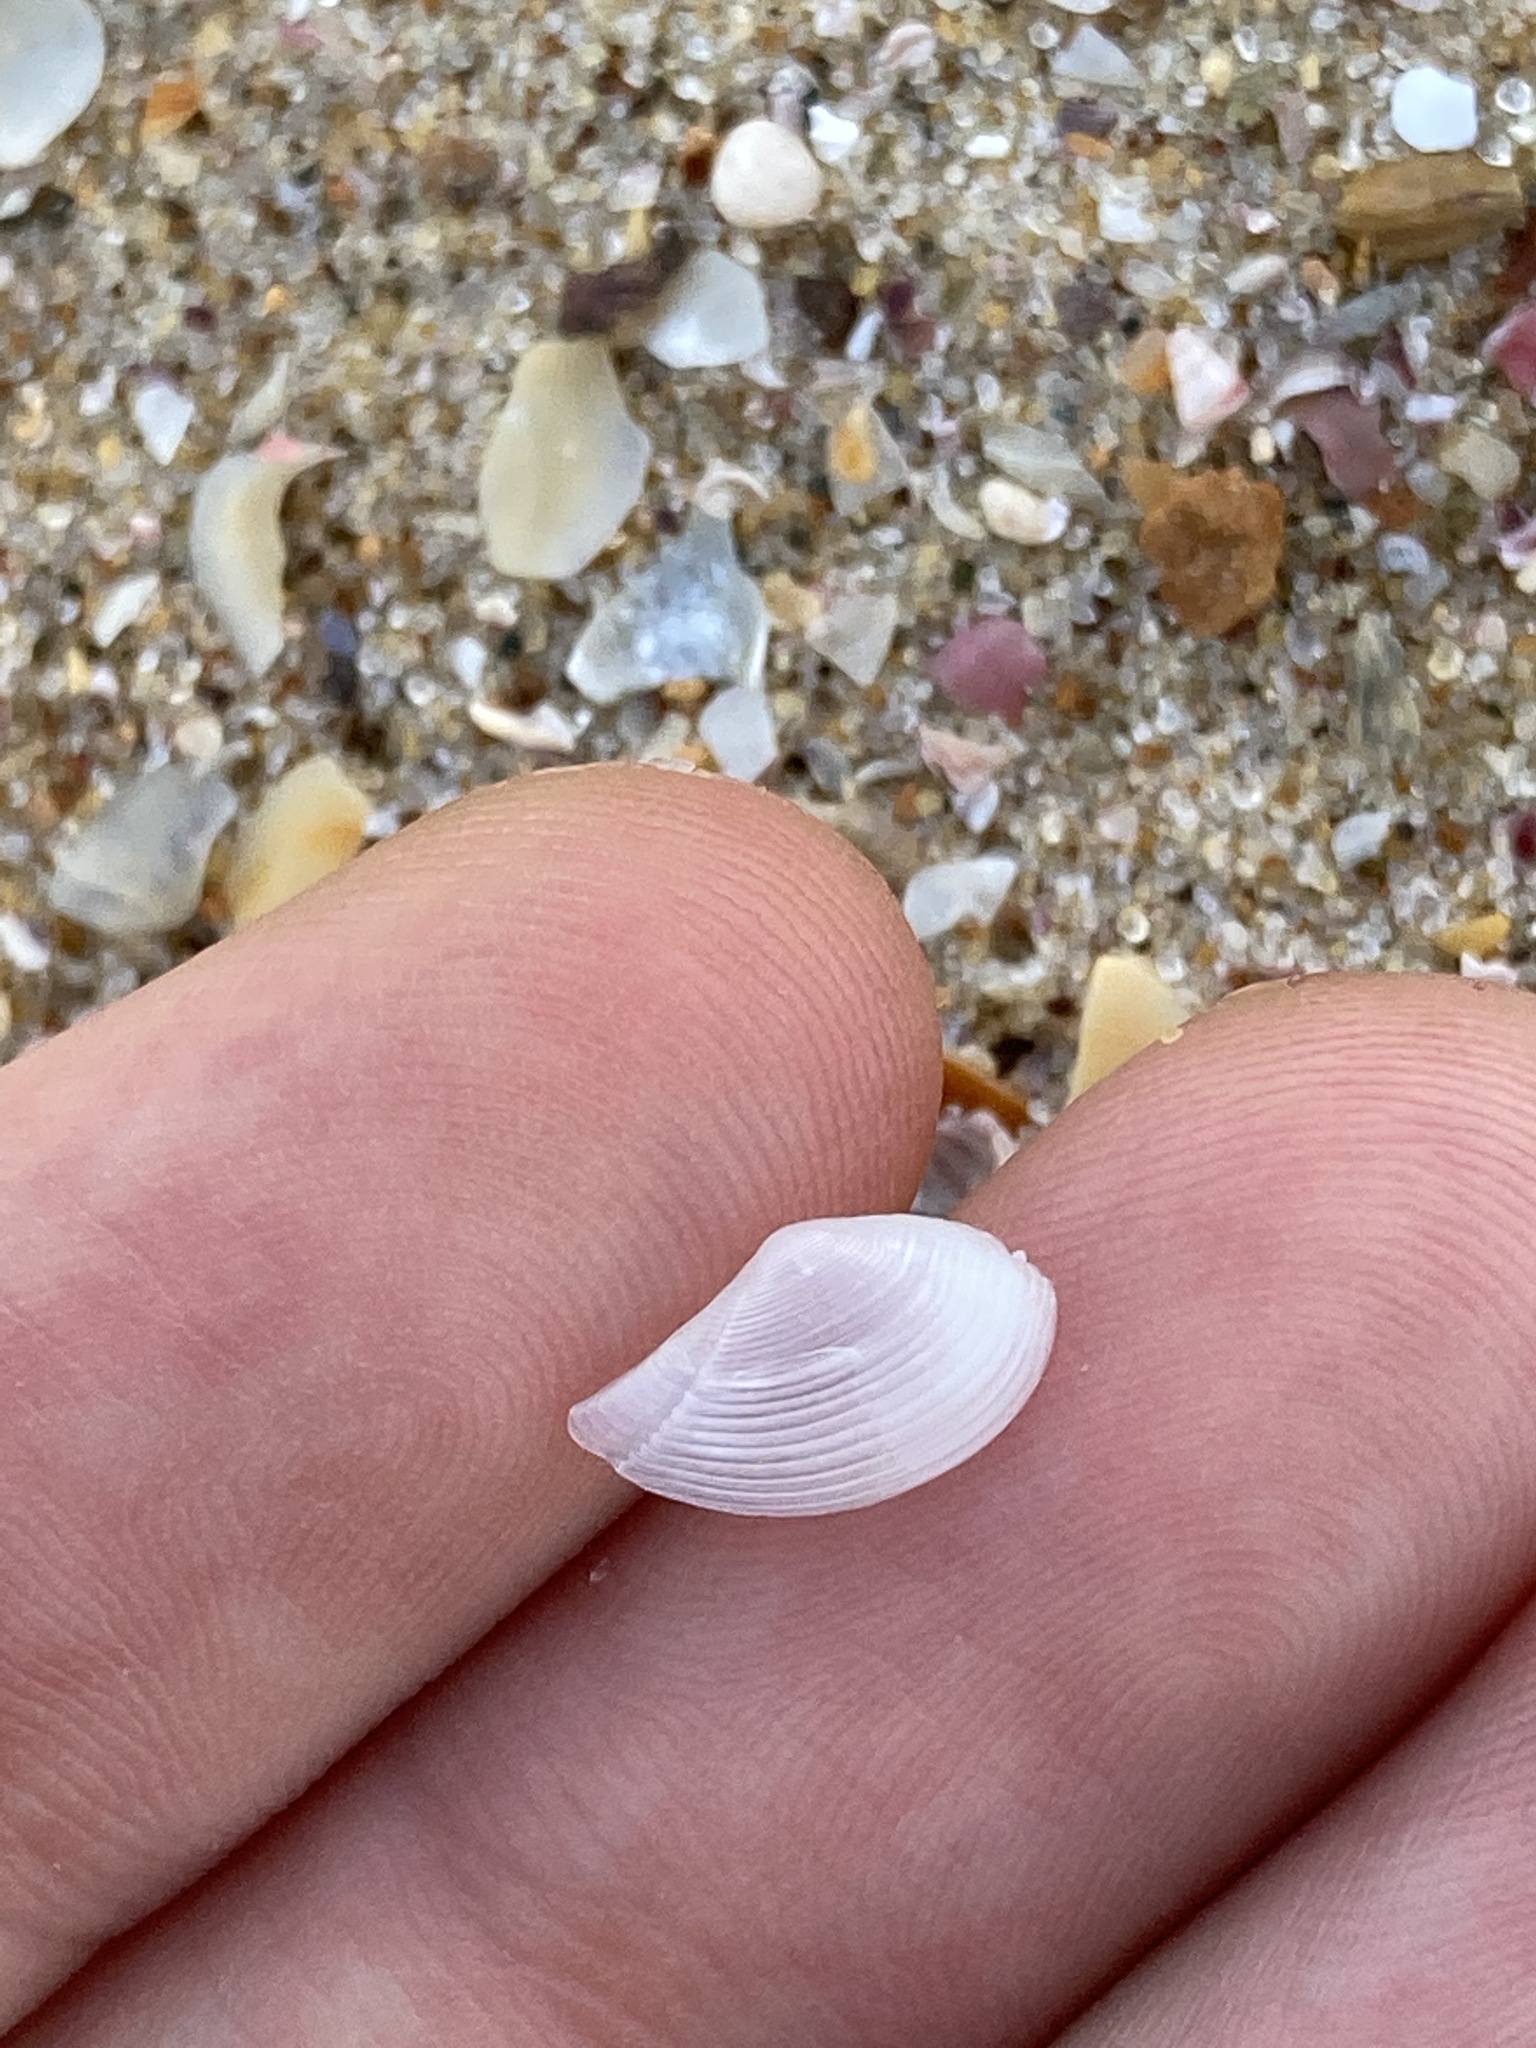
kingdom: Animalia
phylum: Mollusca
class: Bivalvia
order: Nuculanida
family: Nuculanidae
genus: Nuculana
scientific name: Nuculana dohrni
